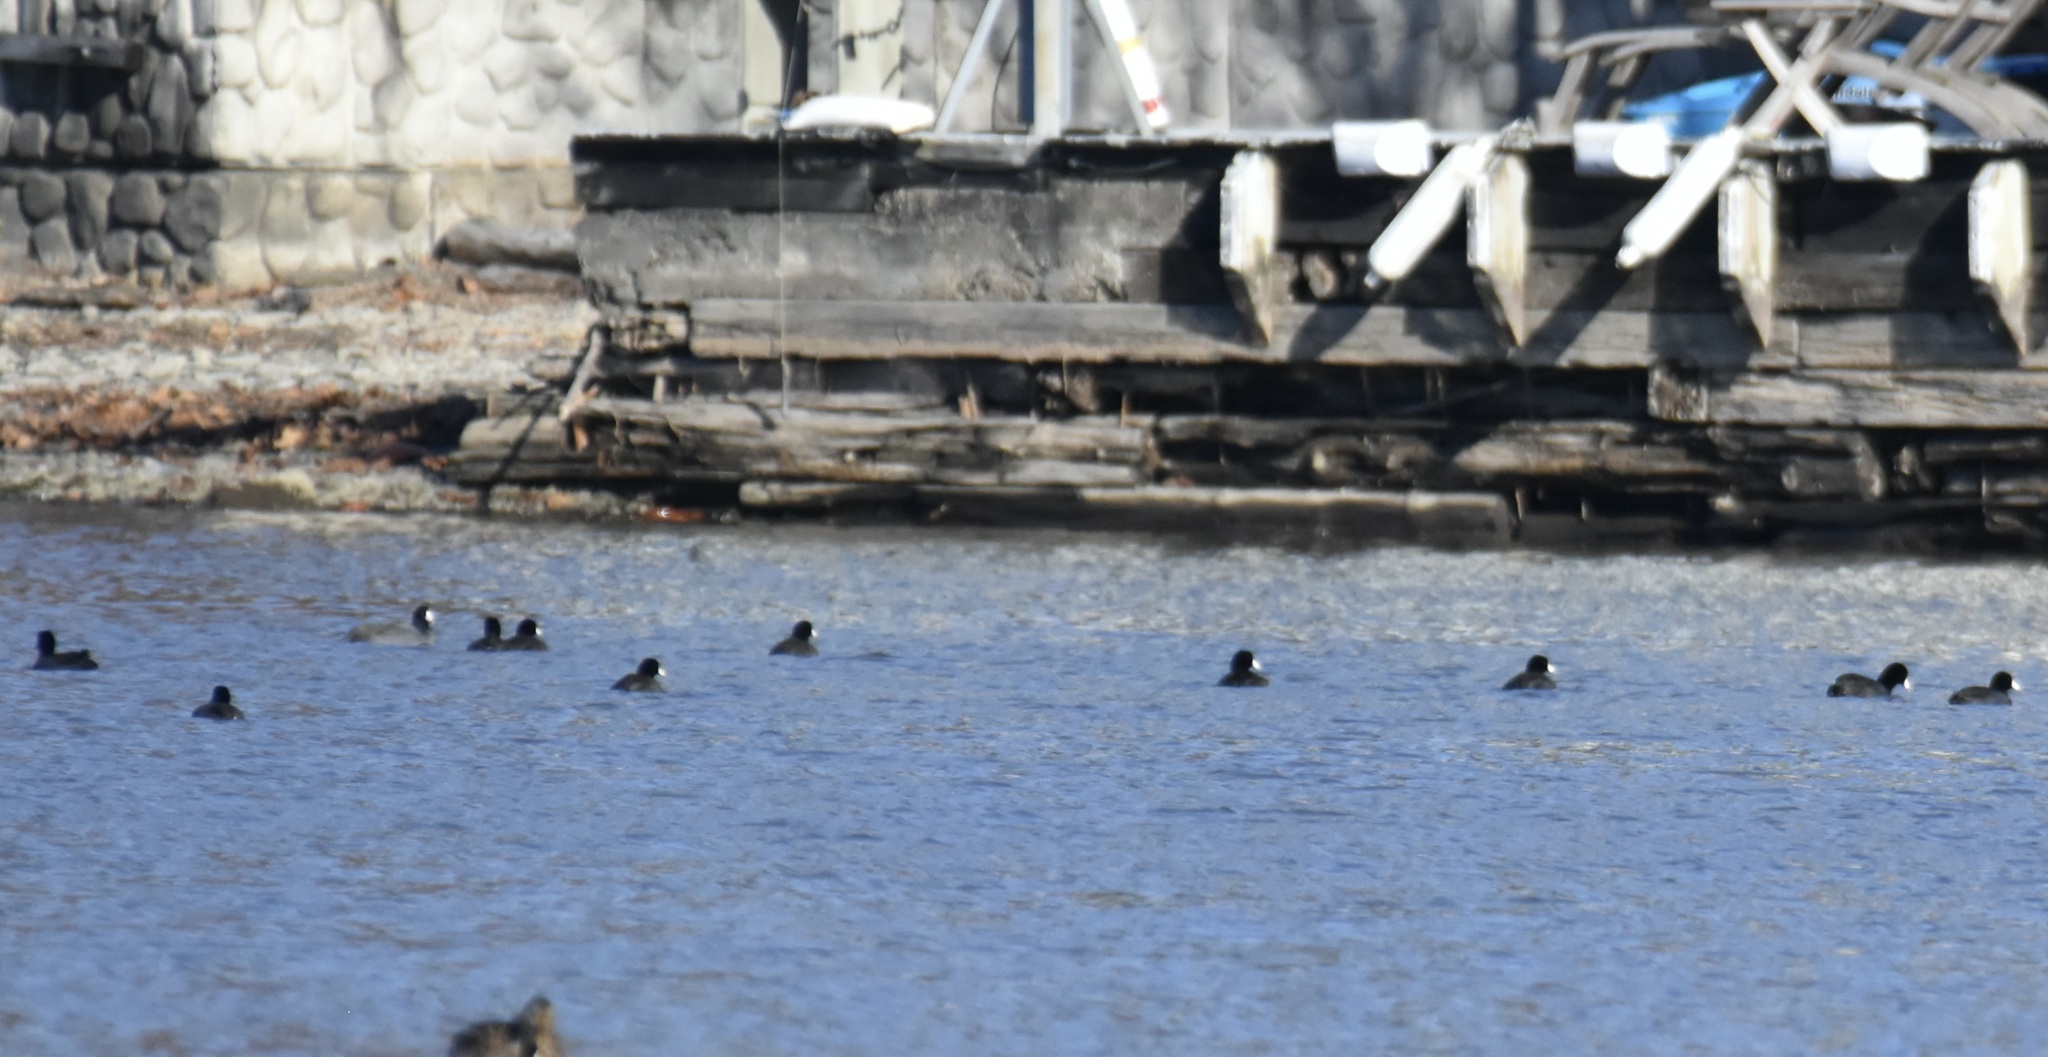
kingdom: Animalia
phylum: Chordata
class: Aves
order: Gruiformes
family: Rallidae
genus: Fulica
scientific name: Fulica americana
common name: American coot
